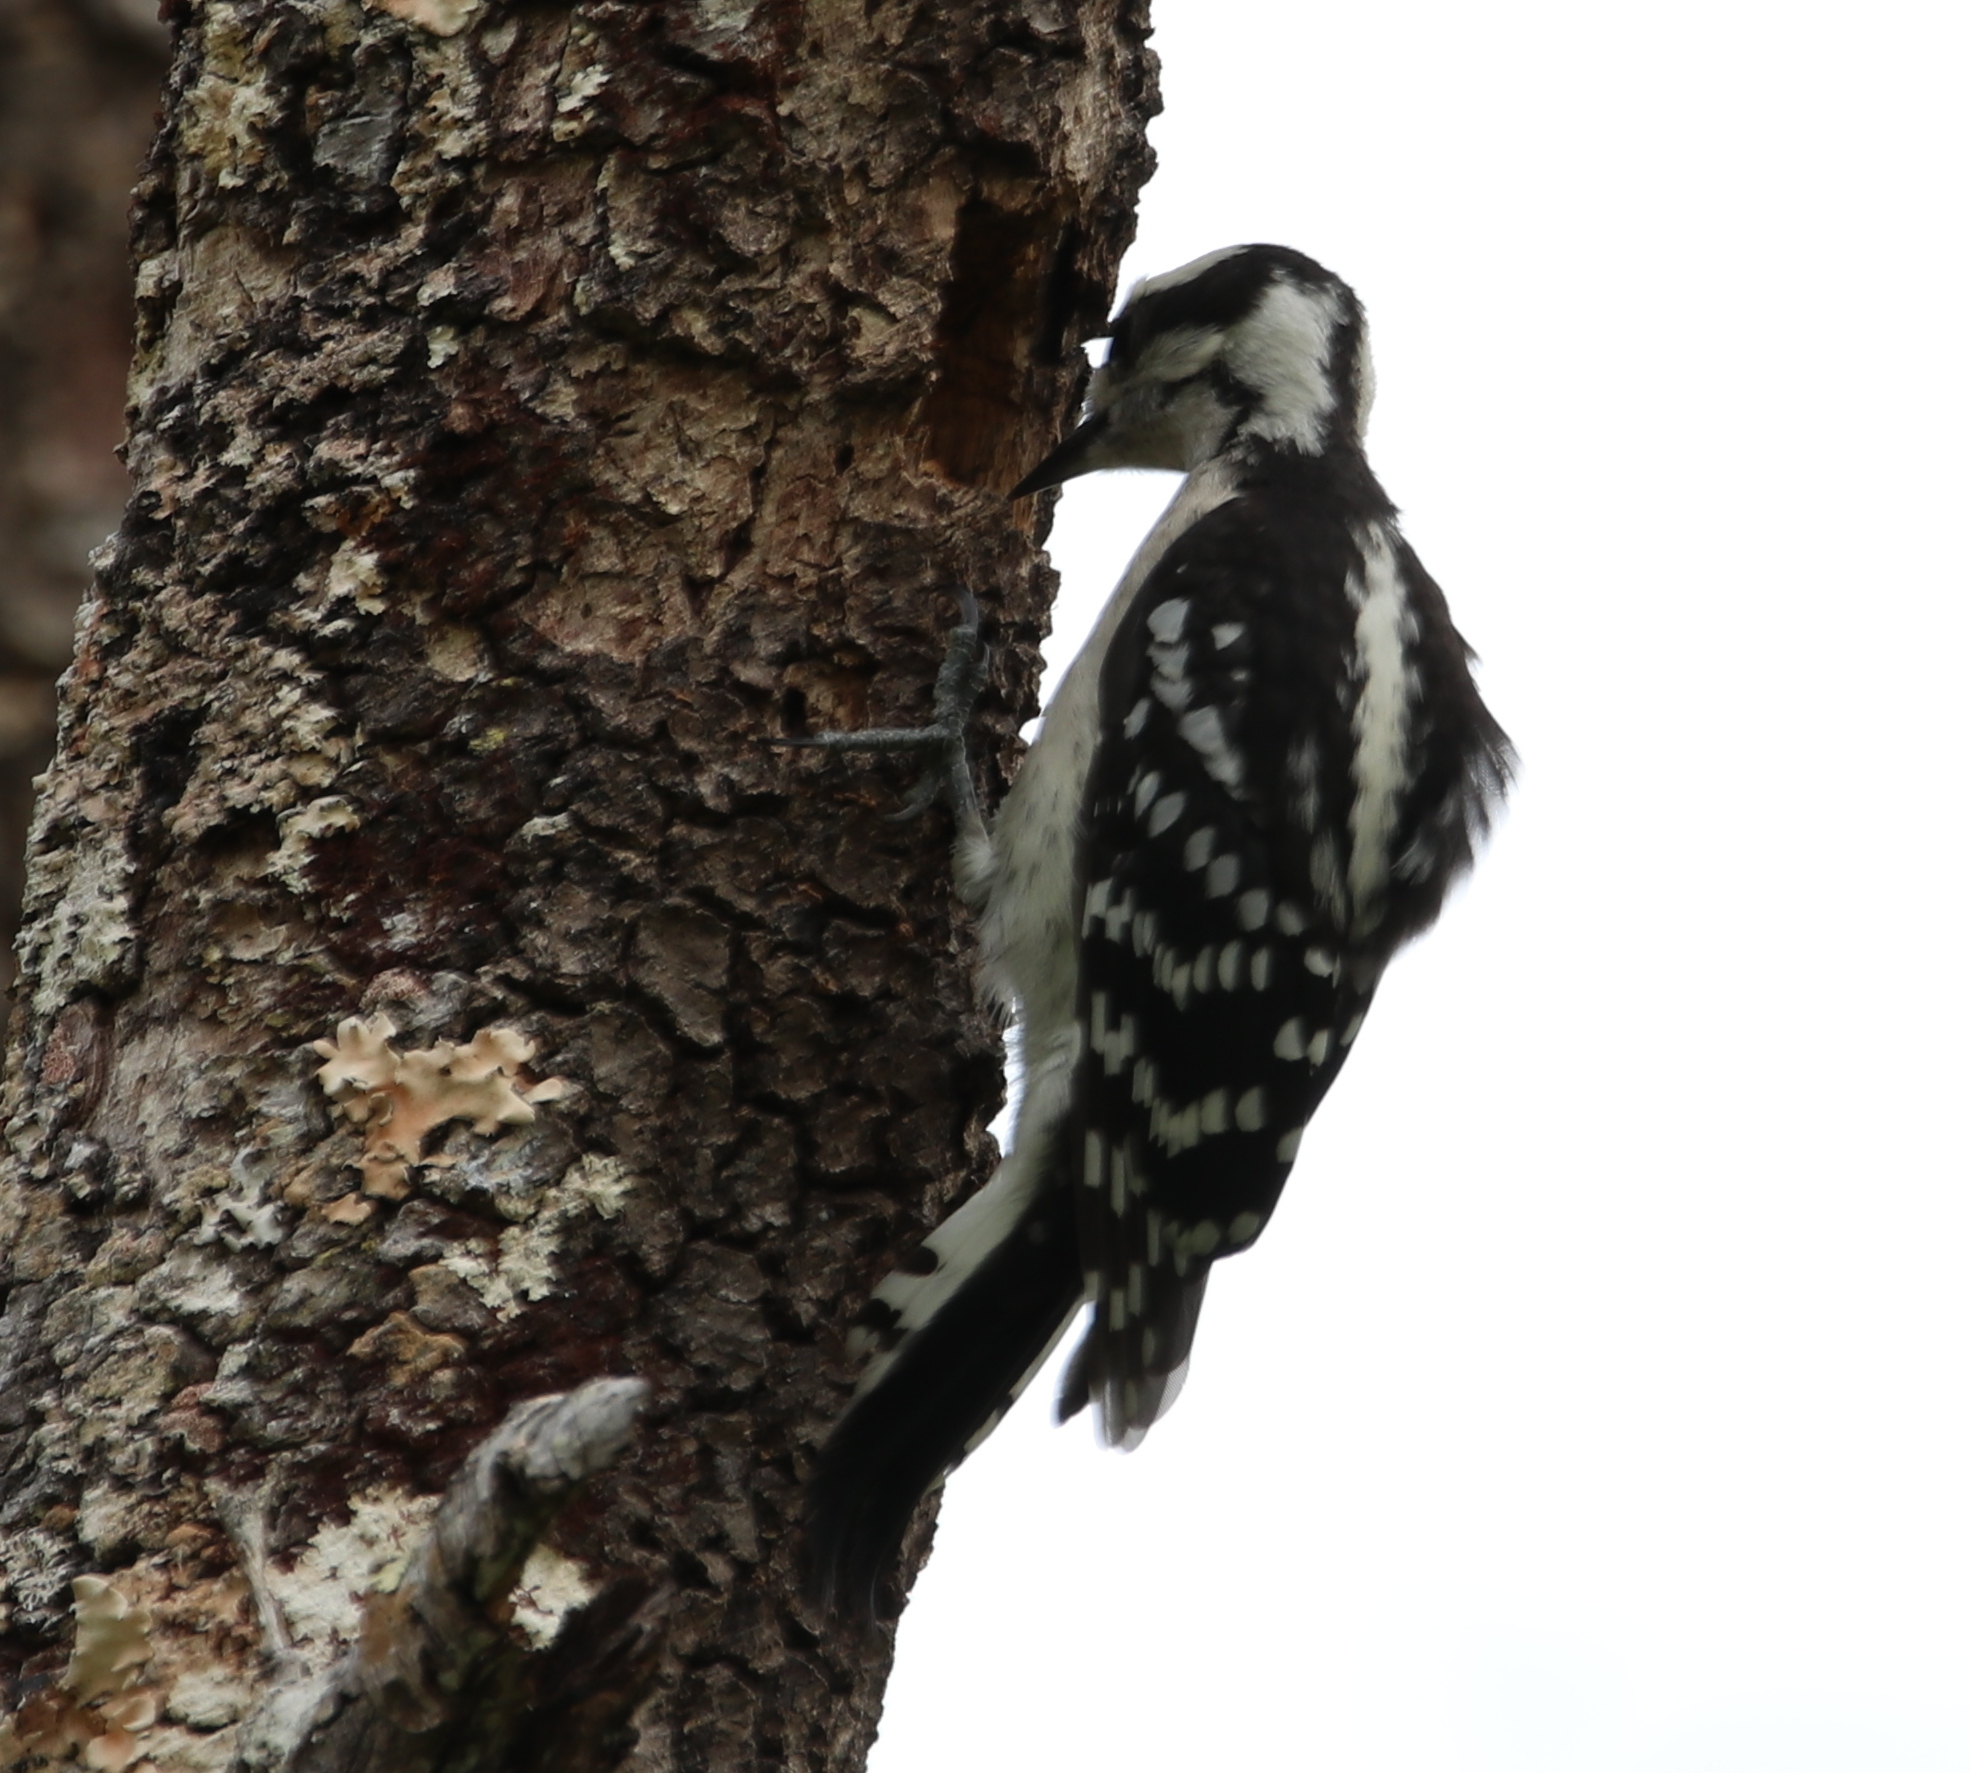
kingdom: Animalia
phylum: Chordata
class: Aves
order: Piciformes
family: Picidae
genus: Dryobates
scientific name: Dryobates pubescens
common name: Downy woodpecker
